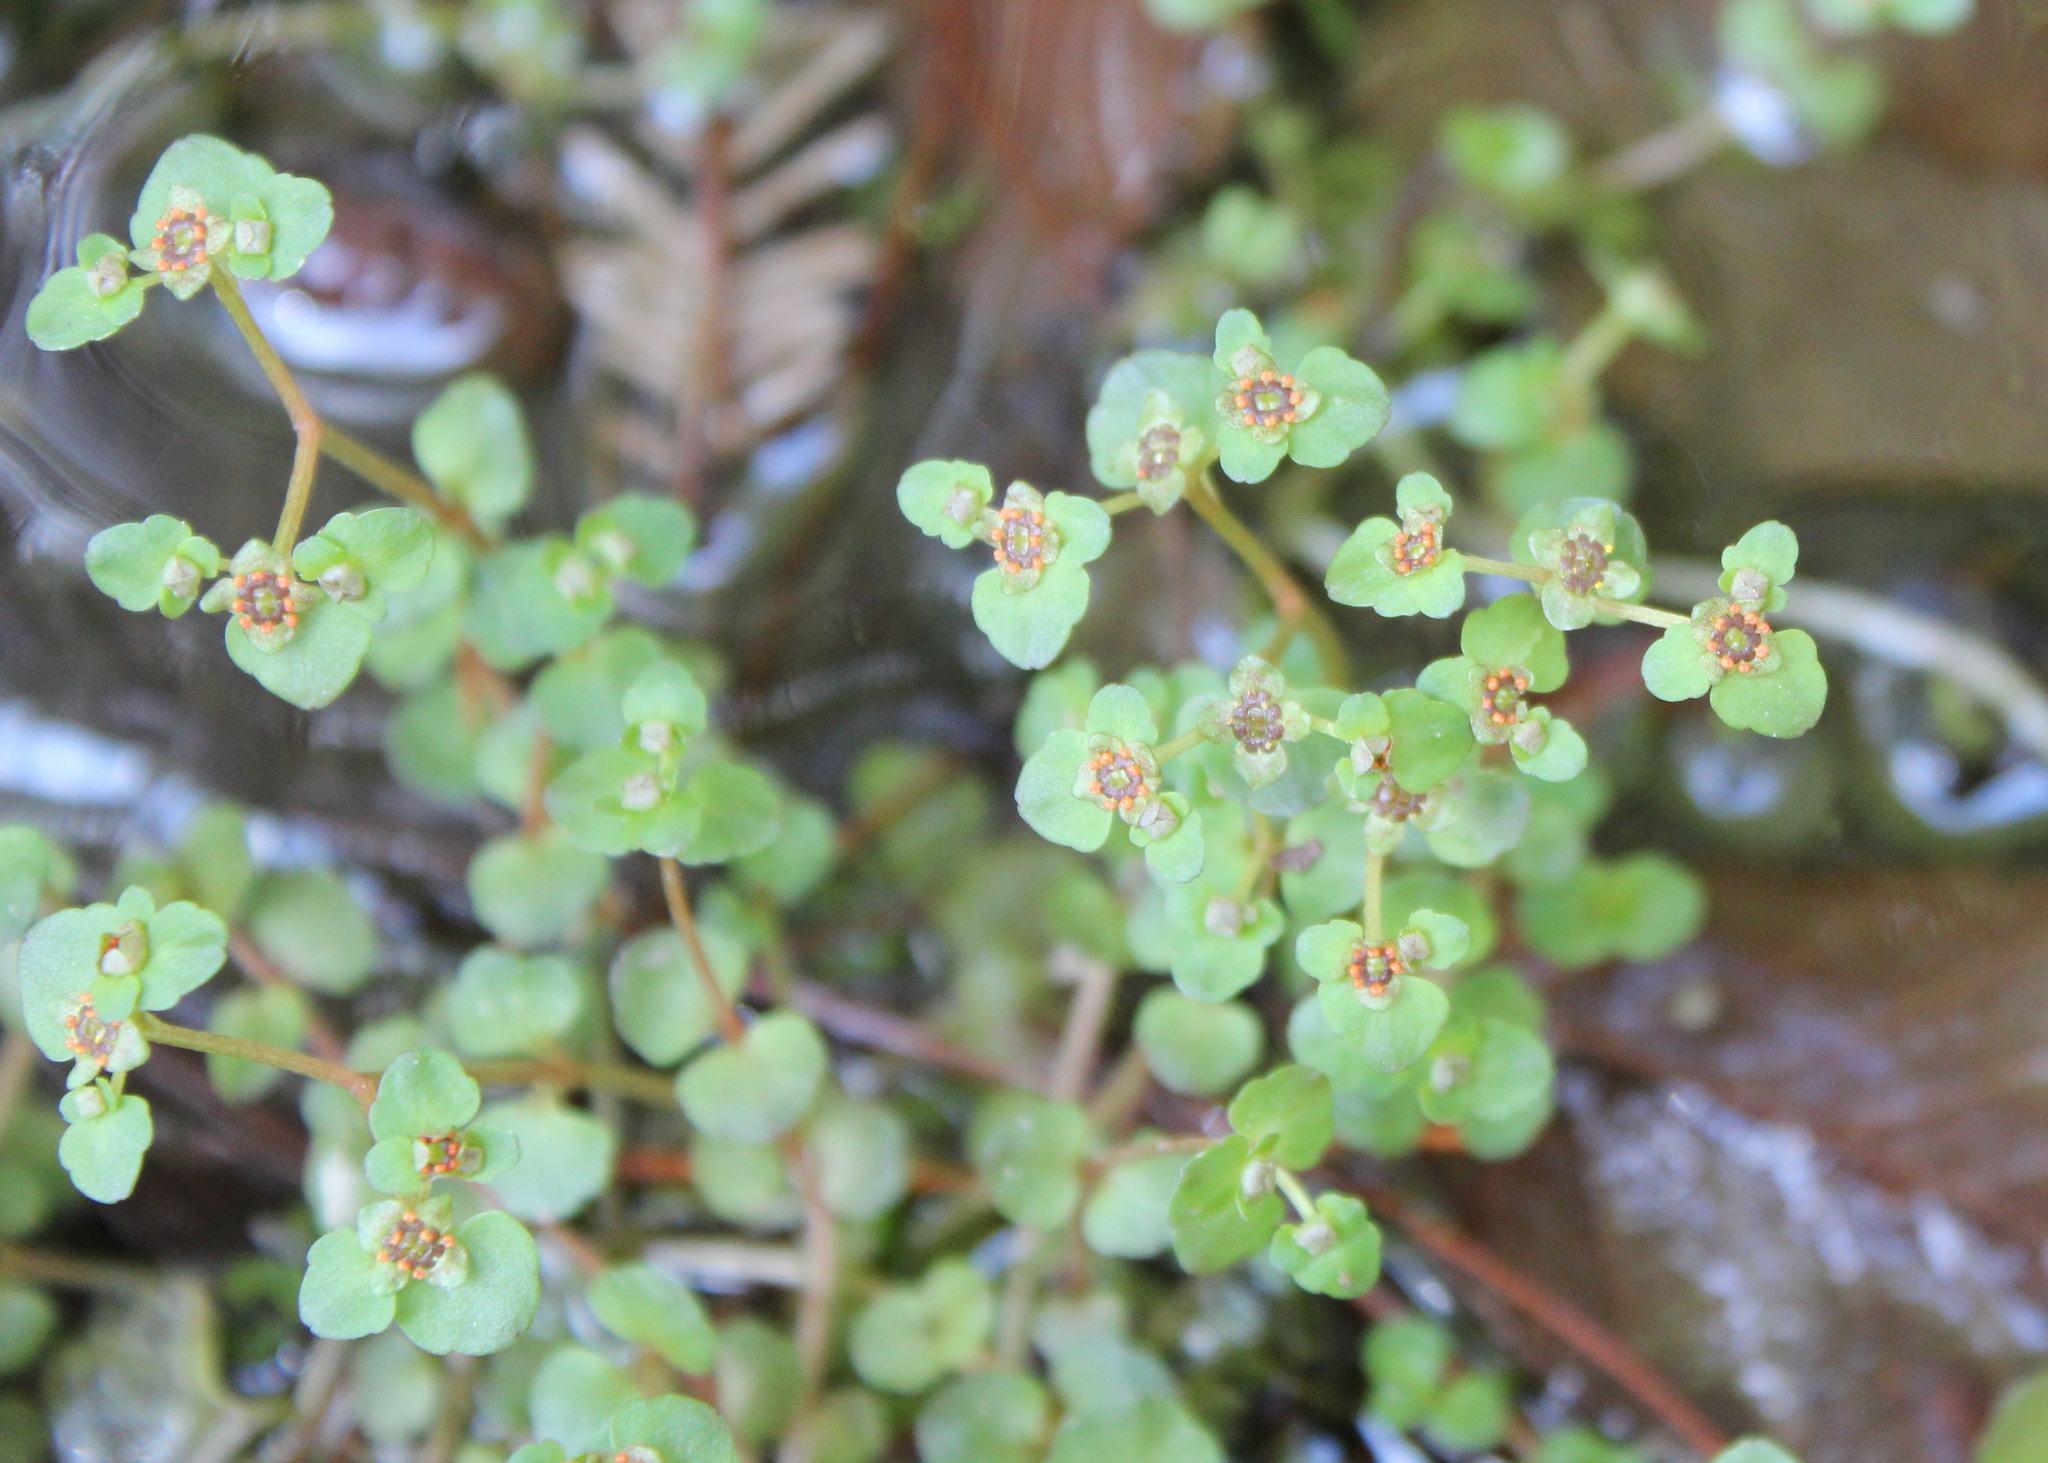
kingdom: Plantae
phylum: Tracheophyta
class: Magnoliopsida
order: Saxifragales
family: Saxifragaceae
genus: Chrysosplenium
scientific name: Chrysosplenium americanum
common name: American golden-saxifrage
